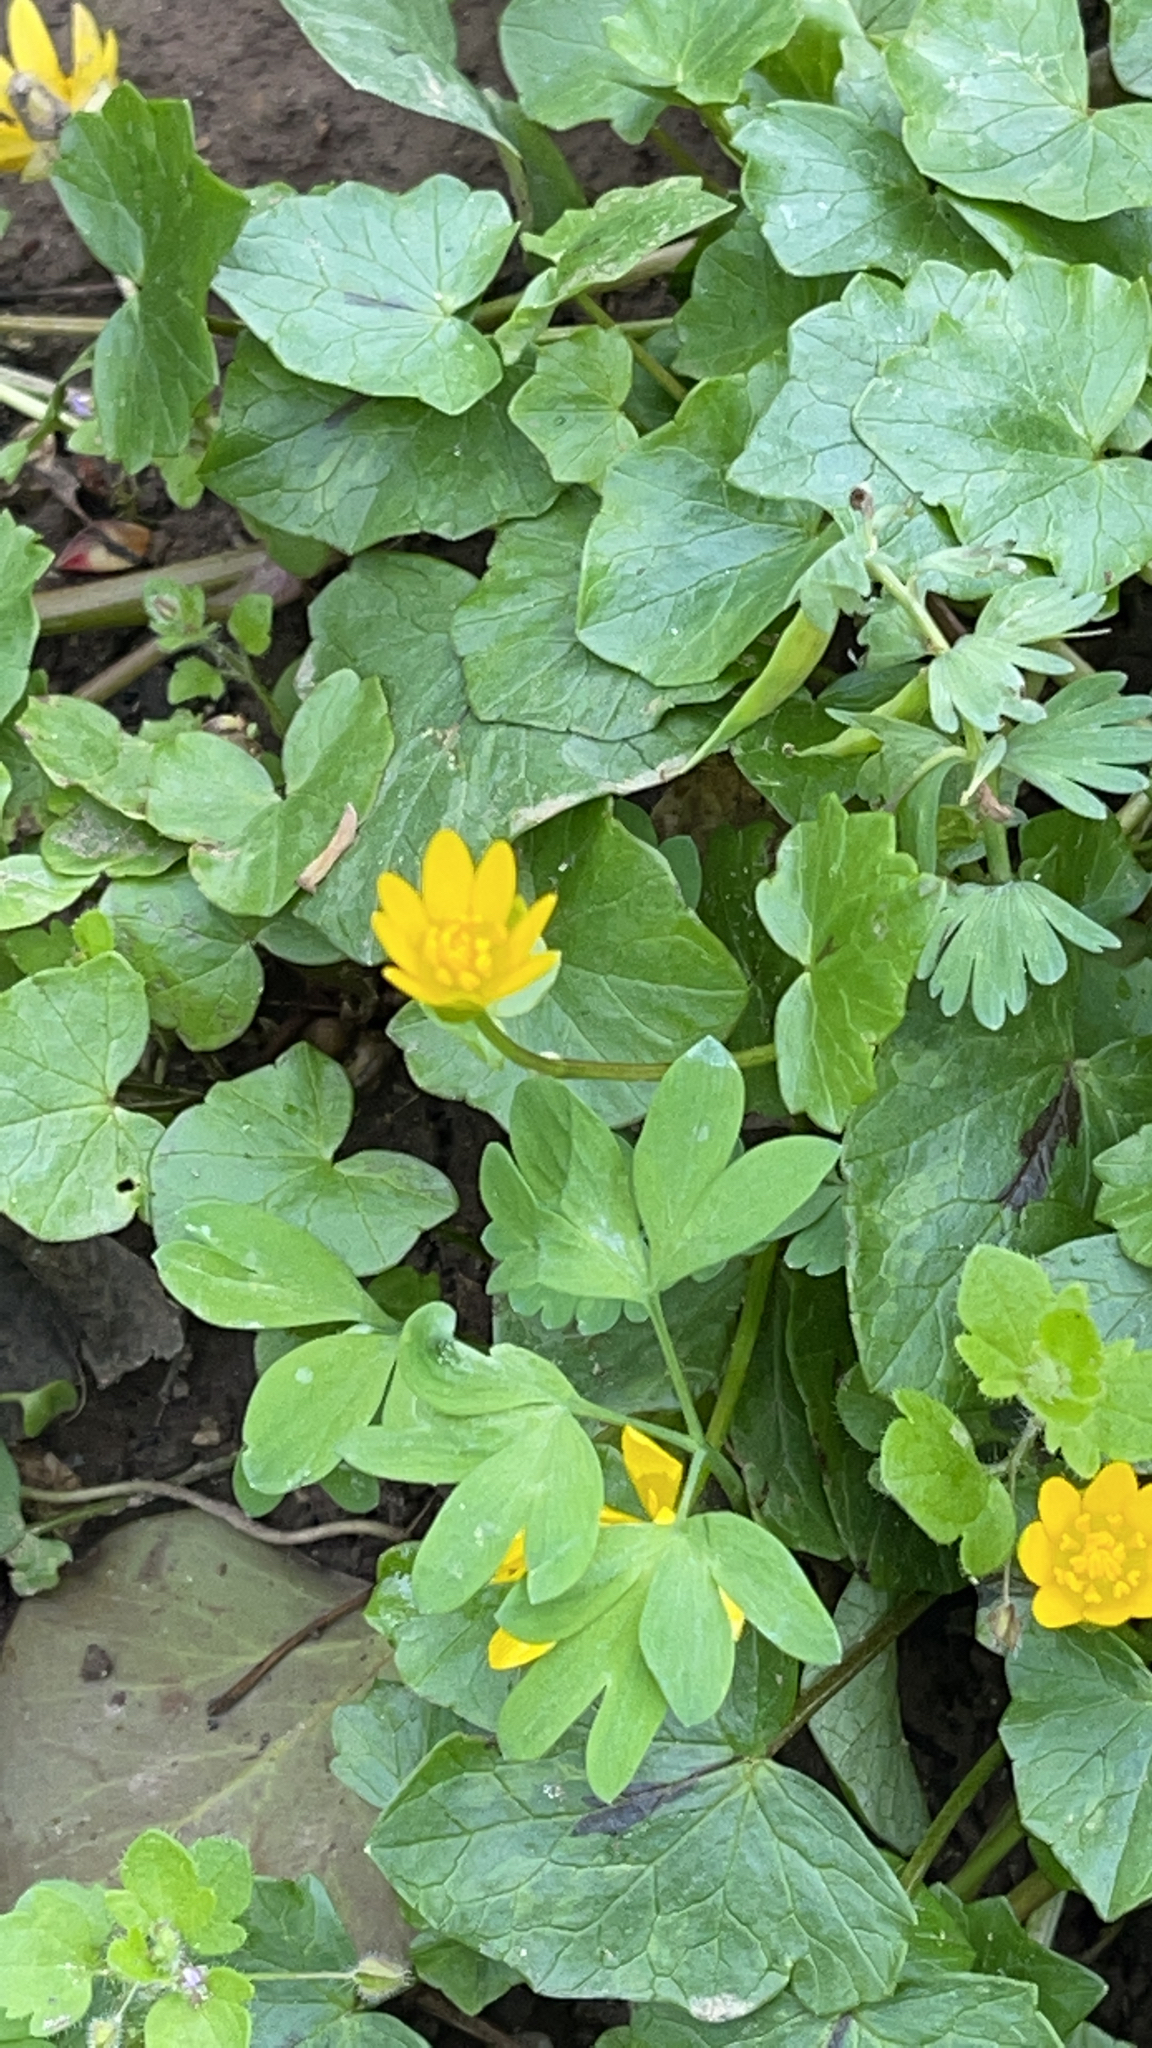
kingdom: Plantae
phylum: Tracheophyta
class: Magnoliopsida
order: Ranunculales
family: Ranunculaceae
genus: Ficaria
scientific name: Ficaria verna
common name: Lesser celandine
